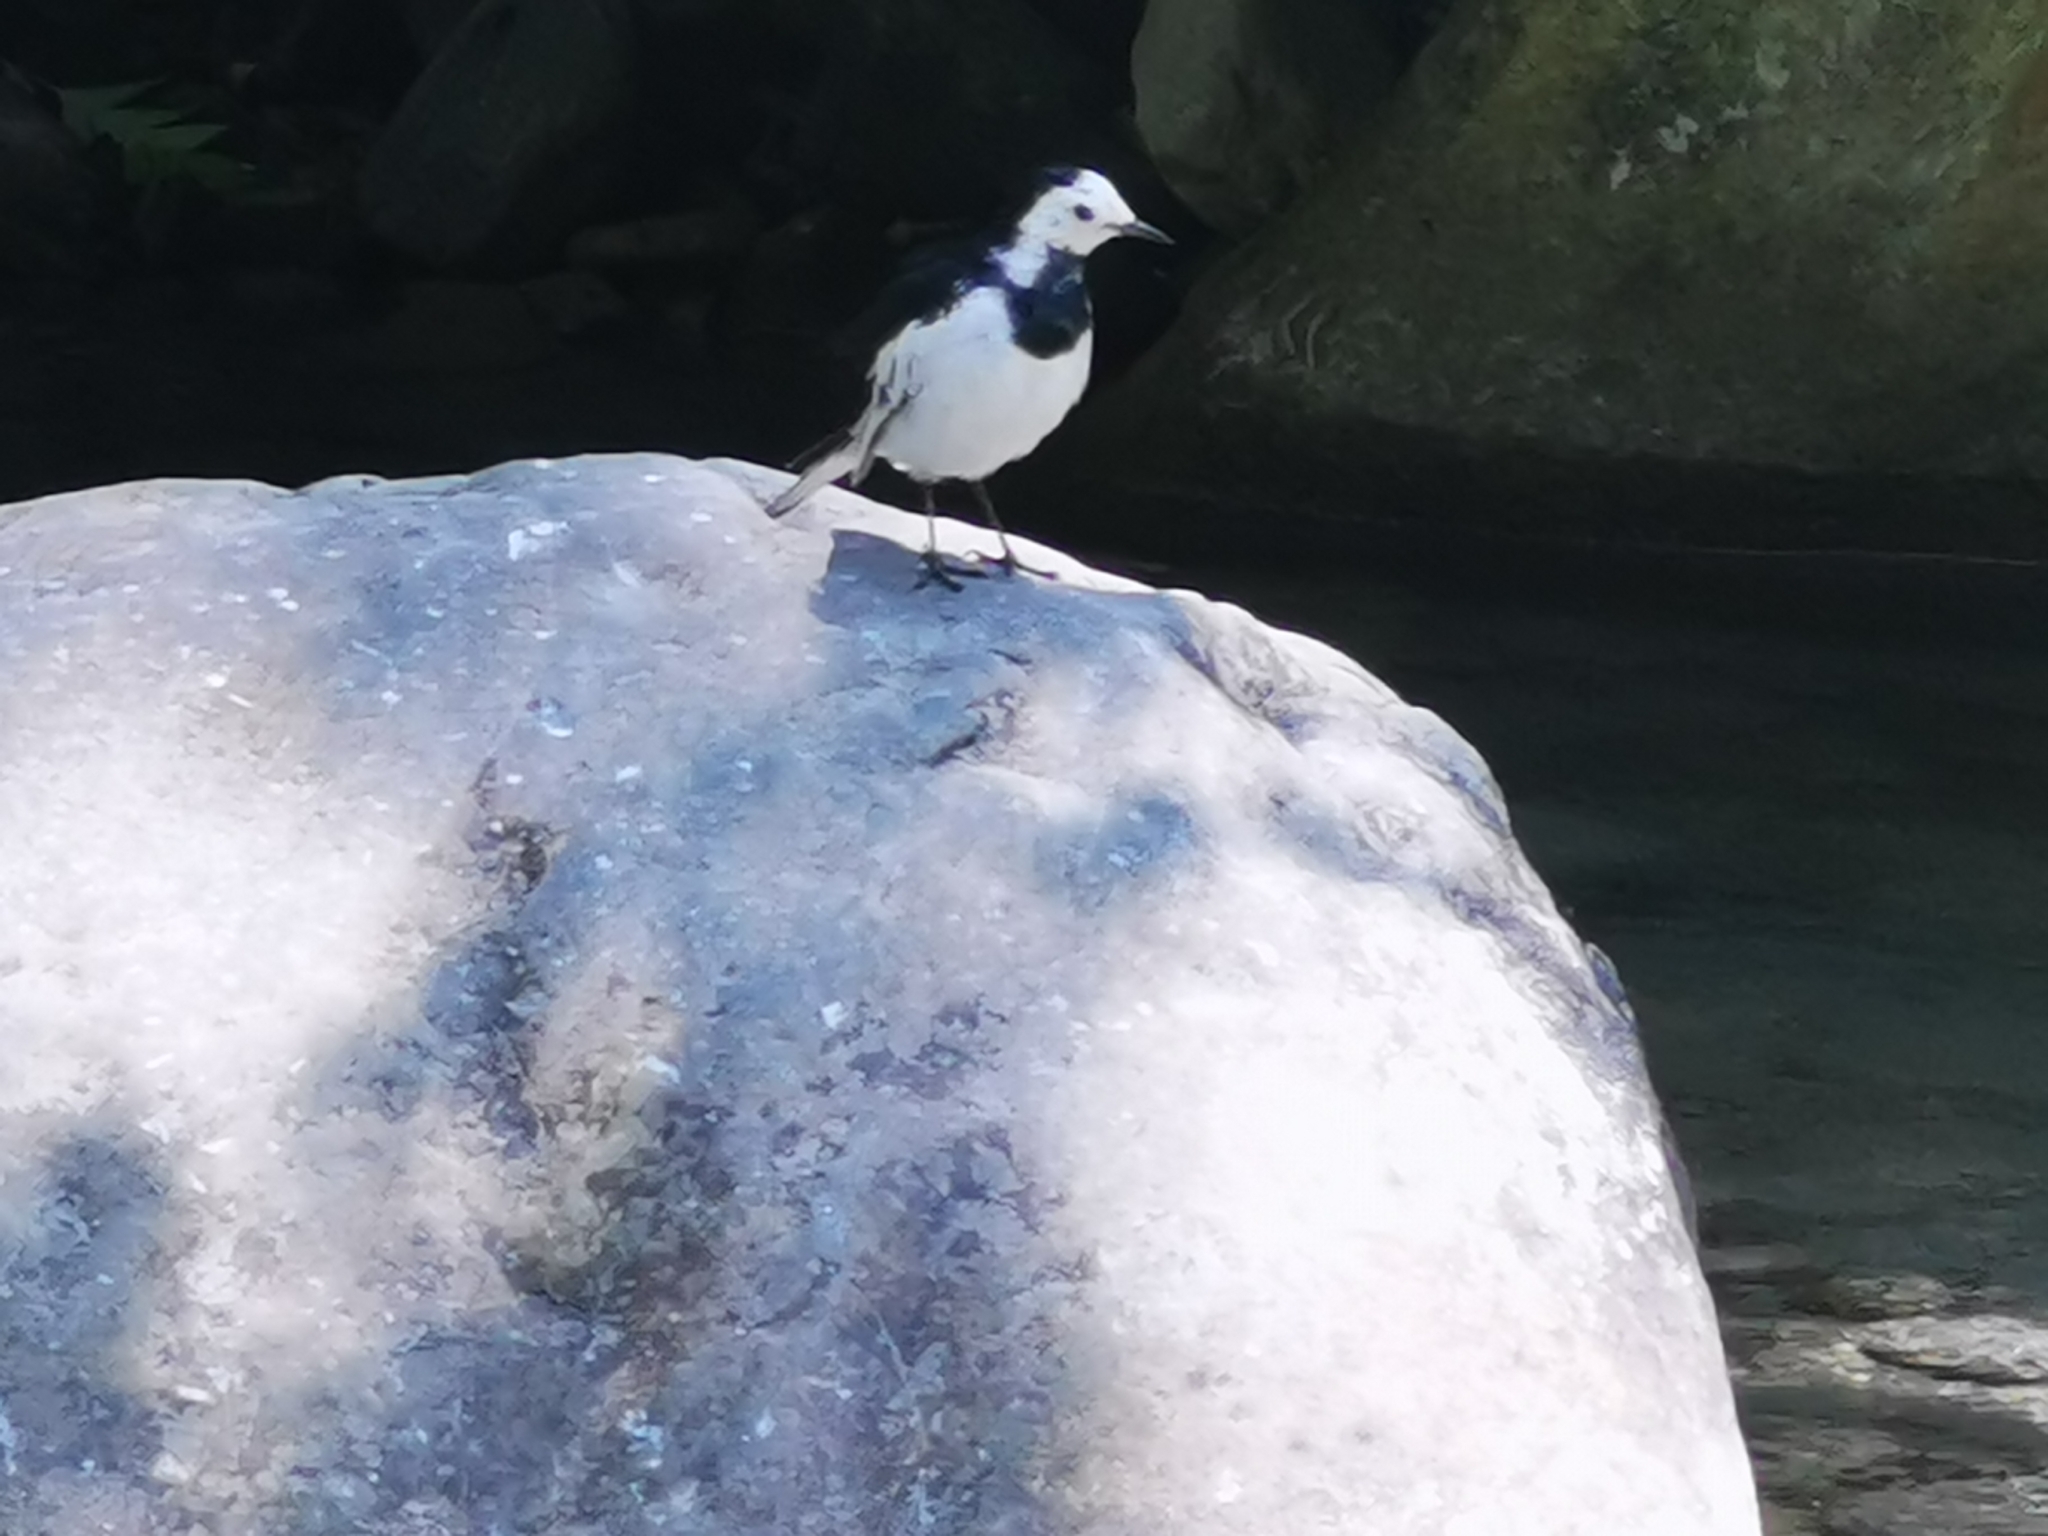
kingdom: Animalia
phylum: Chordata
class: Aves
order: Passeriformes
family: Motacillidae
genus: Motacilla
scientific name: Motacilla alba
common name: White wagtail
